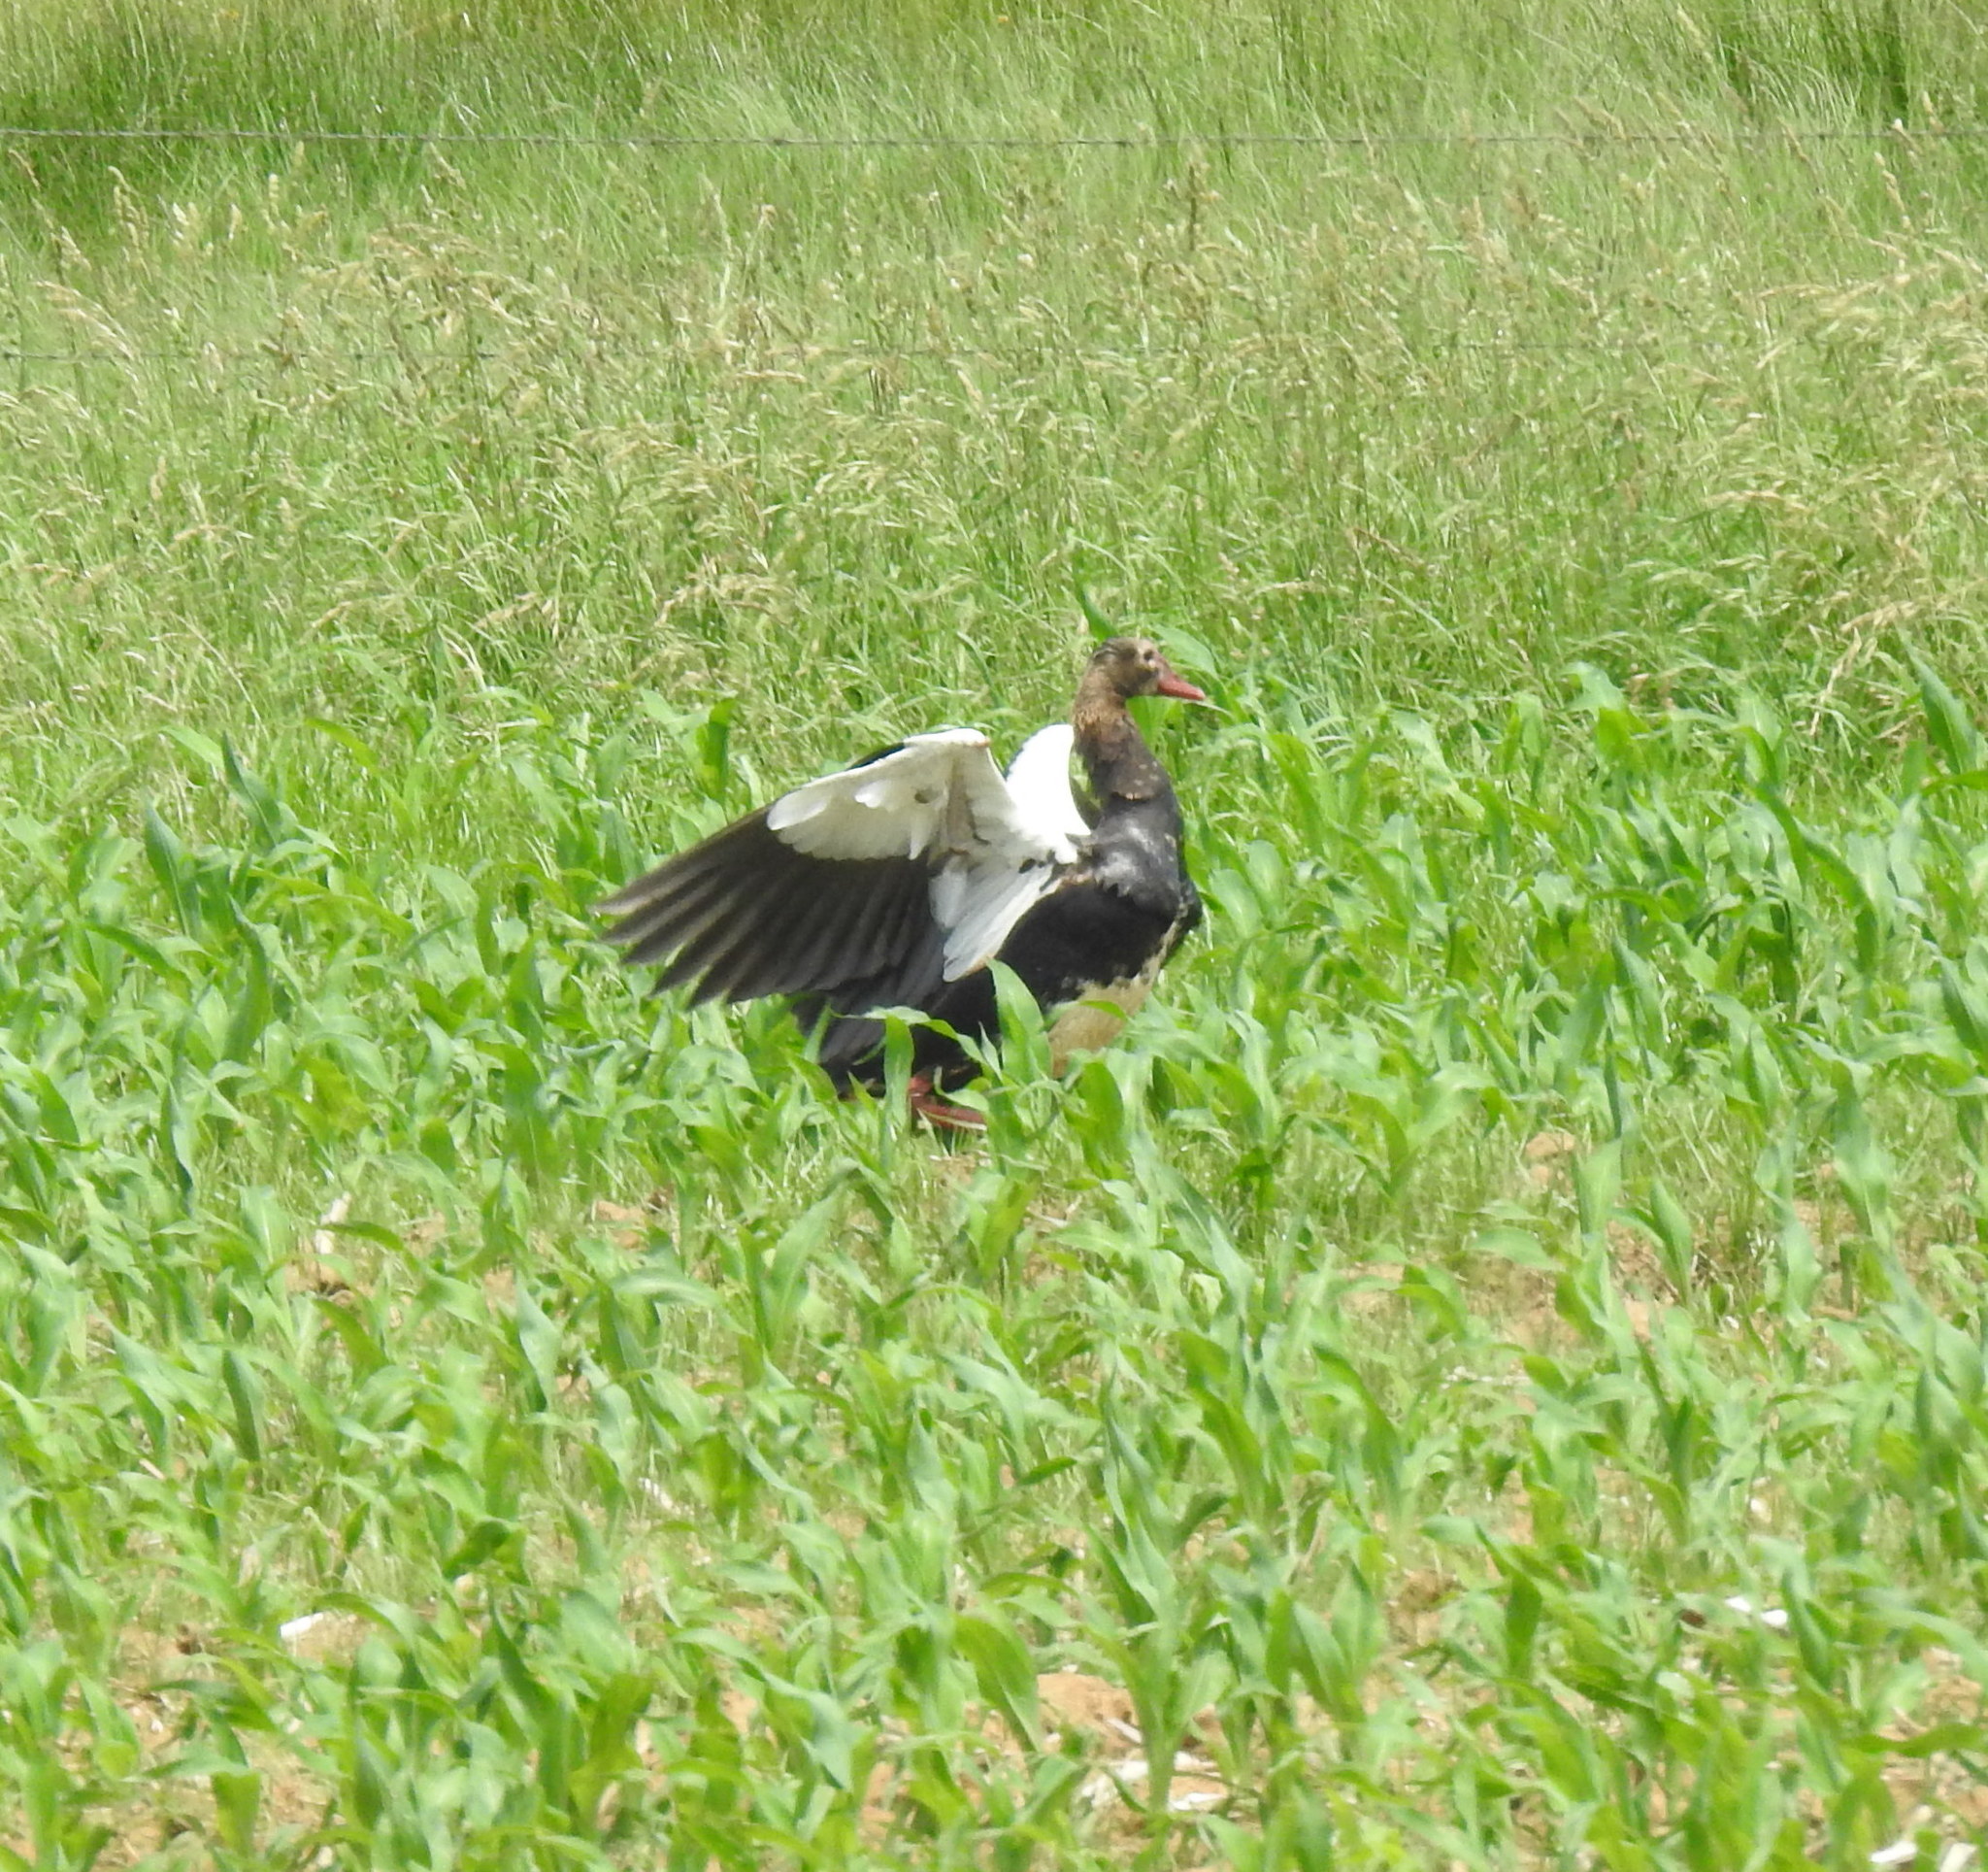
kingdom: Animalia
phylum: Chordata
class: Aves
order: Anseriformes
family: Anatidae
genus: Plectropterus
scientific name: Plectropterus gambensis
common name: Spur-winged goose
